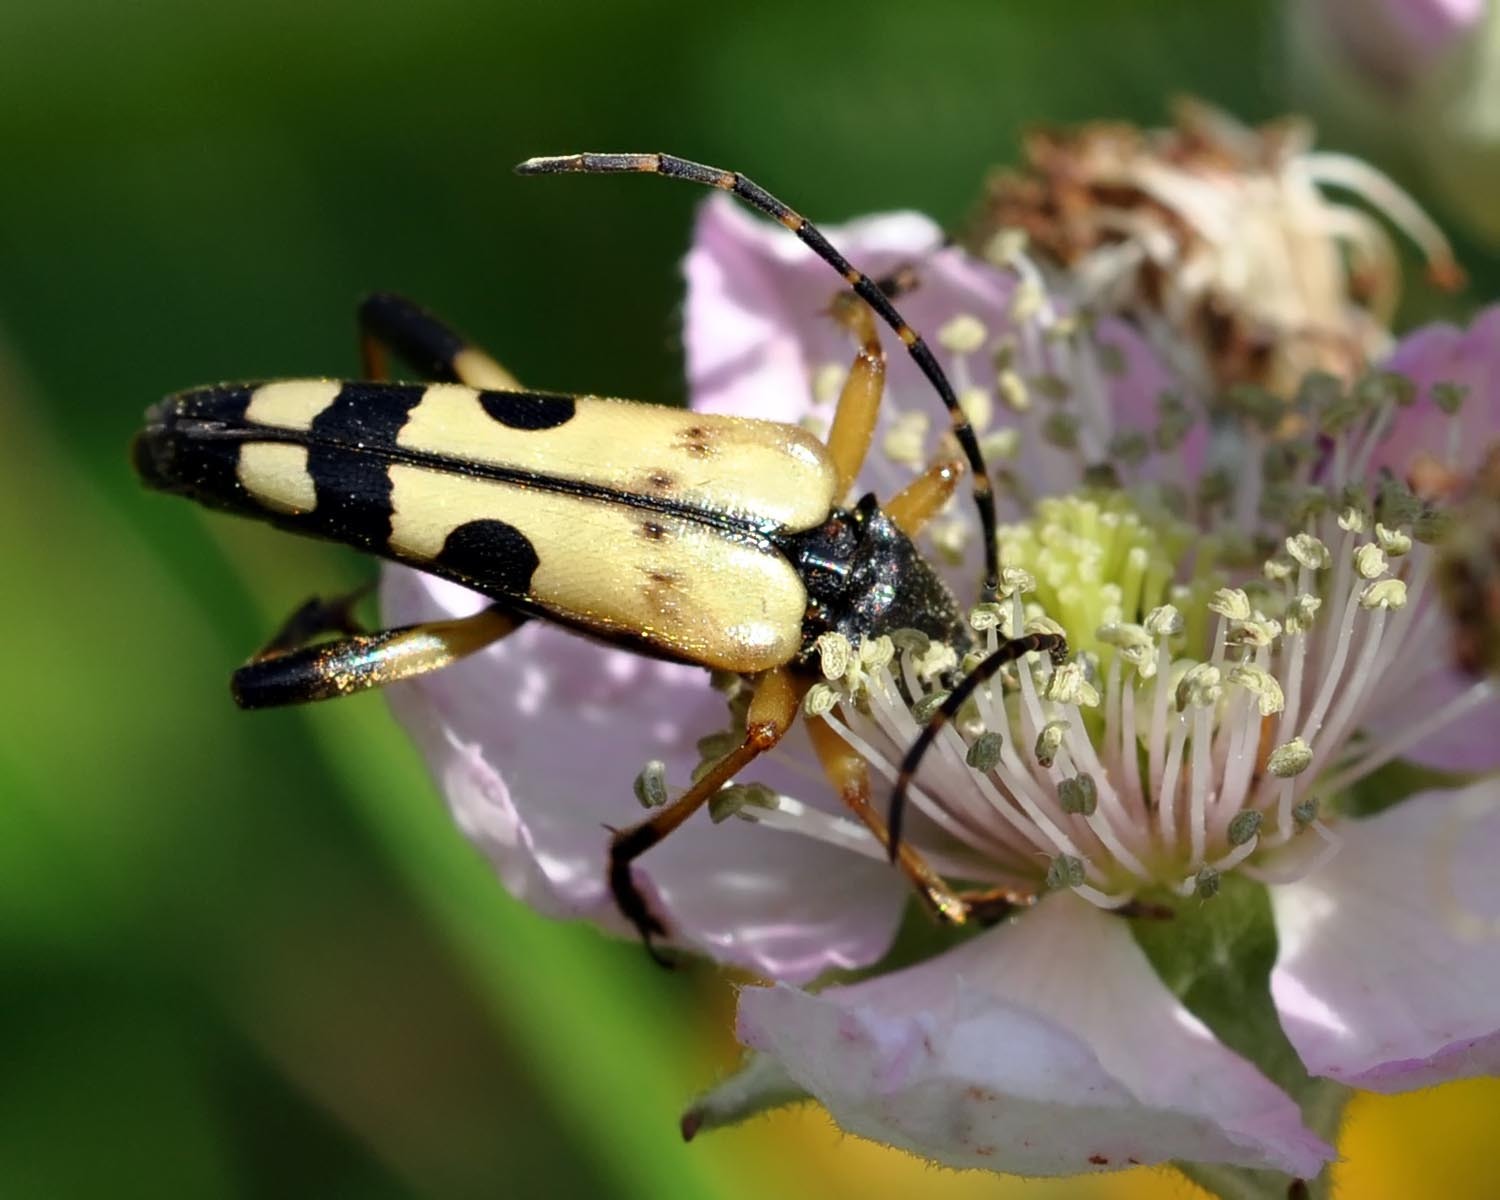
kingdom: Animalia
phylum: Arthropoda
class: Insecta
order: Coleoptera
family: Cerambycidae
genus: Rutpela
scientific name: Rutpela maculata
